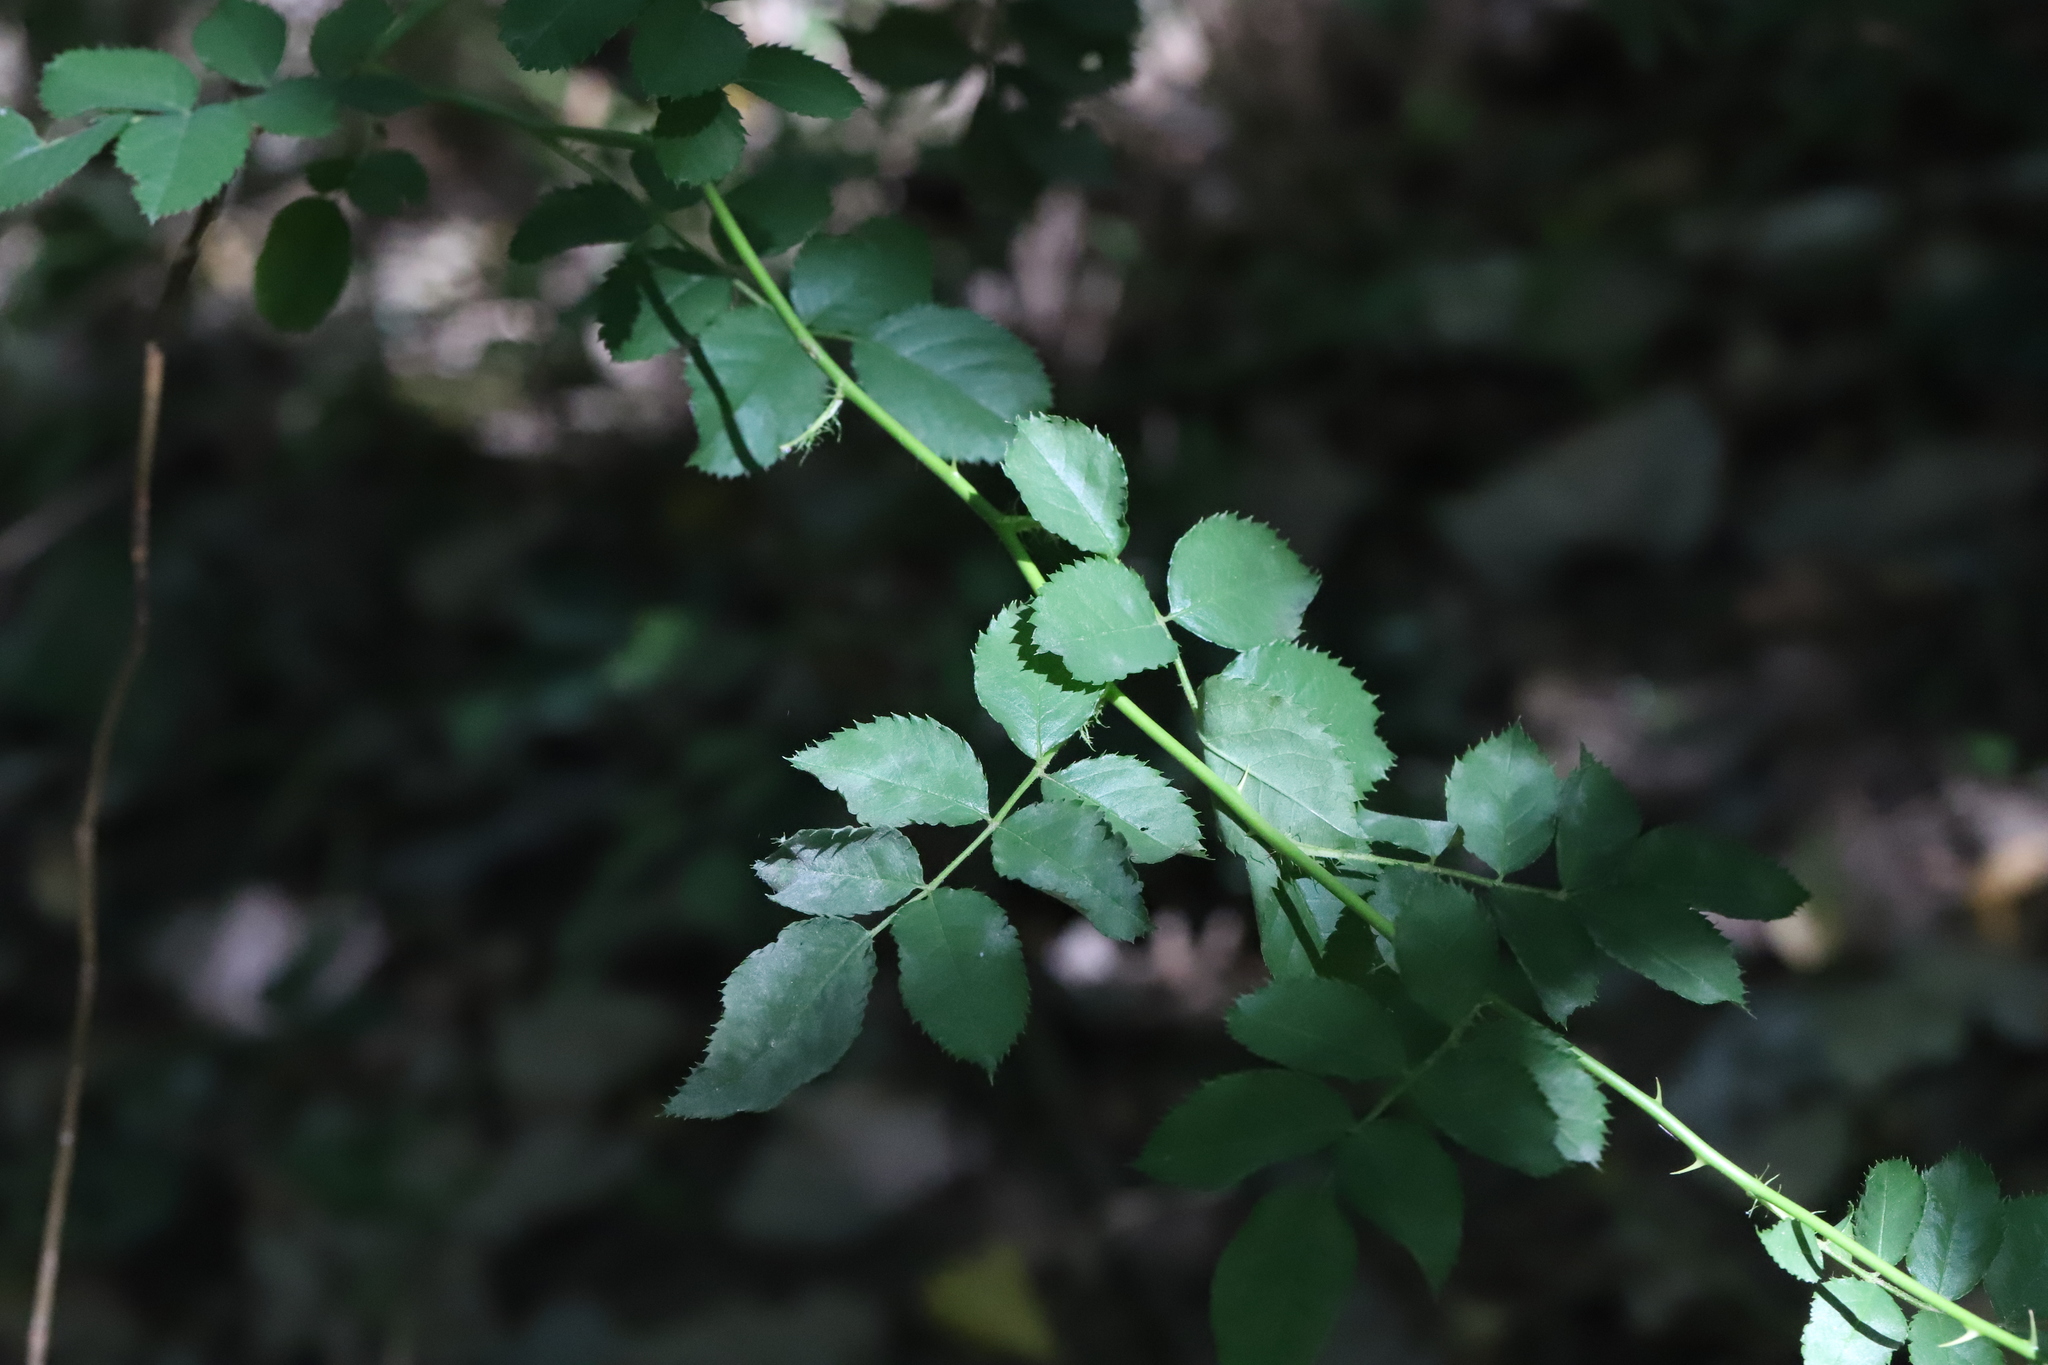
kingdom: Fungi
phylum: Ascomycota
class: Leotiomycetes
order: Helotiales
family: Erysiphaceae
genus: Podosphaera
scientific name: Podosphaera pannosa
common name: Rose mildew
